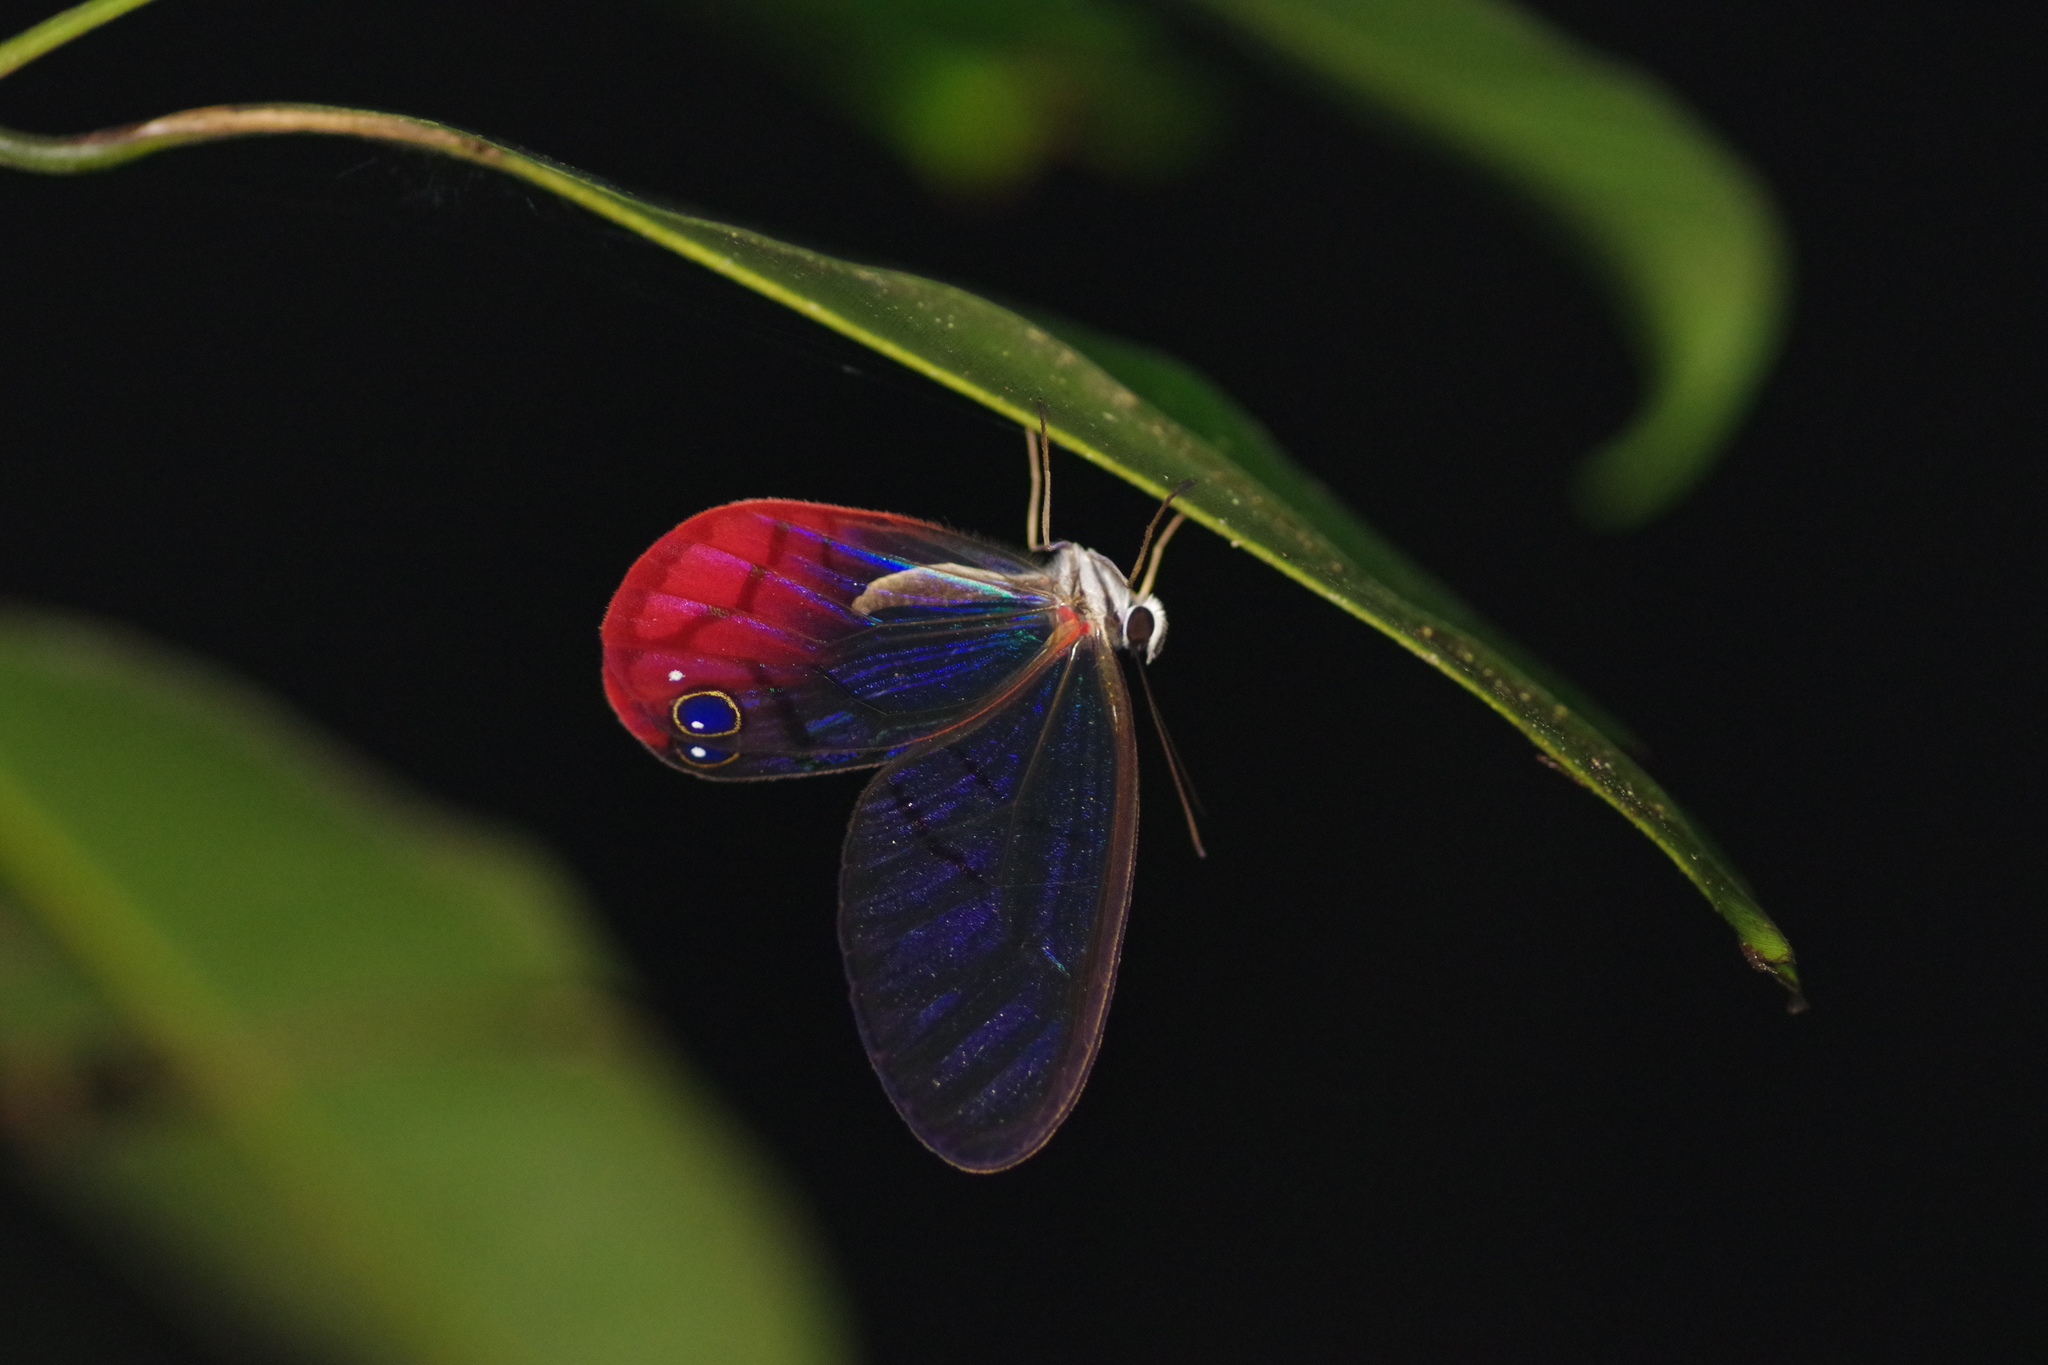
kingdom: Animalia
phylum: Arthropoda
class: Insecta
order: Lepidoptera
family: Nymphalidae
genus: Cithaerias
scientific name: Cithaerias pireta
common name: Rusted clearwing-satyr
